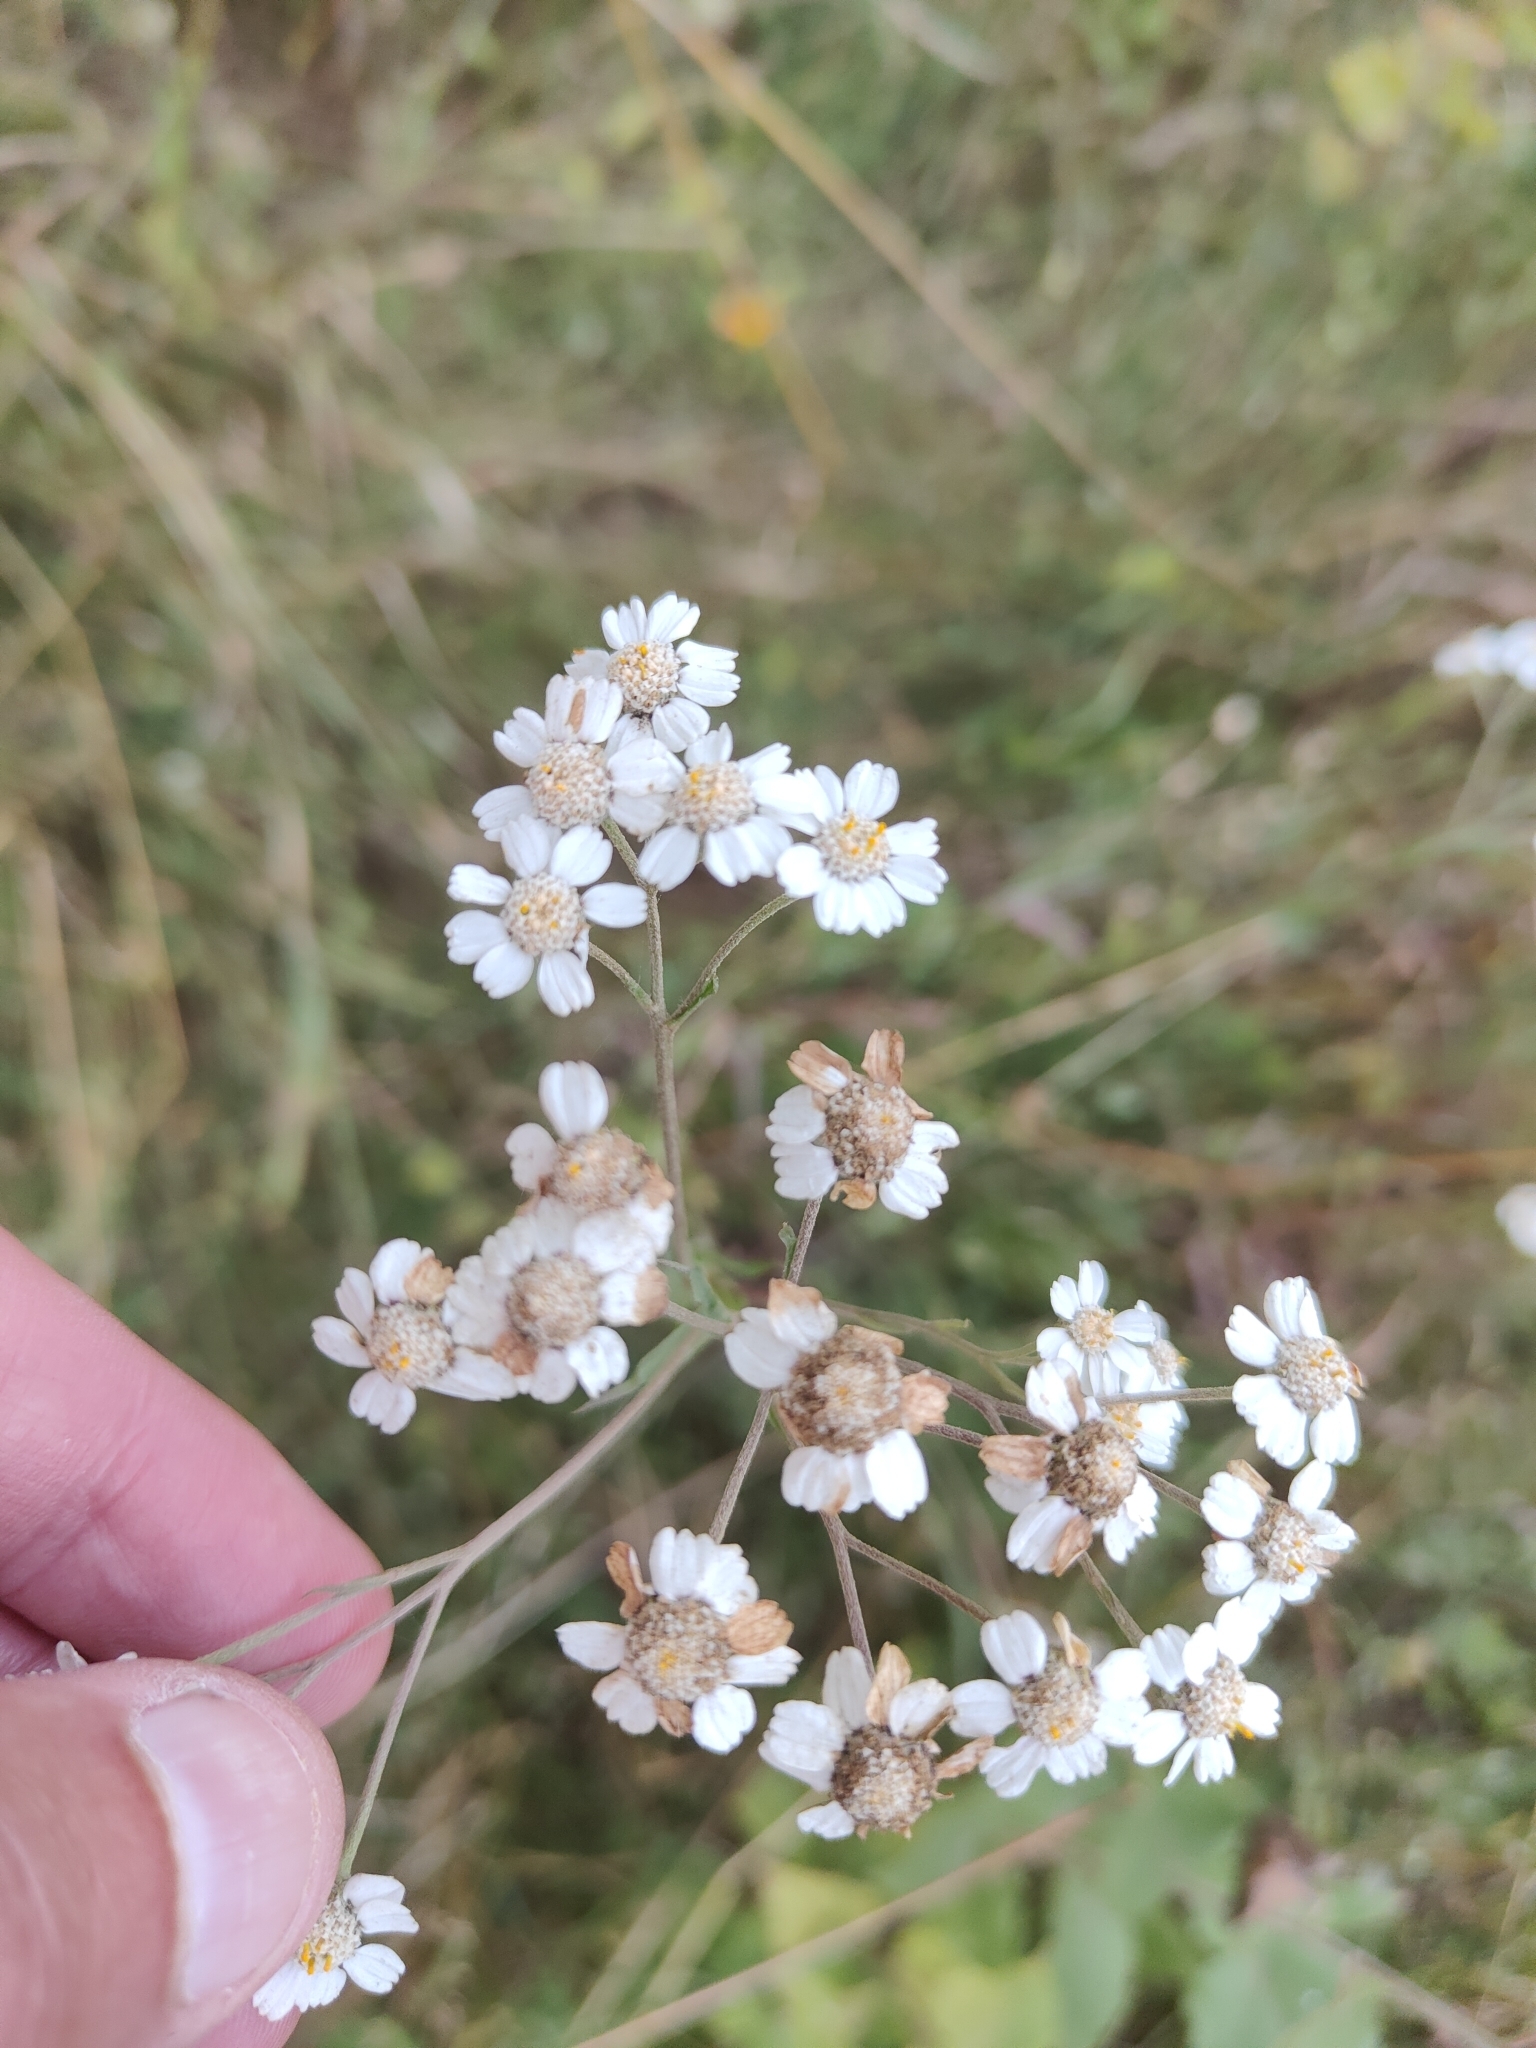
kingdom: Plantae
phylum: Tracheophyta
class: Magnoliopsida
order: Asterales
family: Asteraceae
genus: Achillea
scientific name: Achillea ptarmica
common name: Sneezeweed
